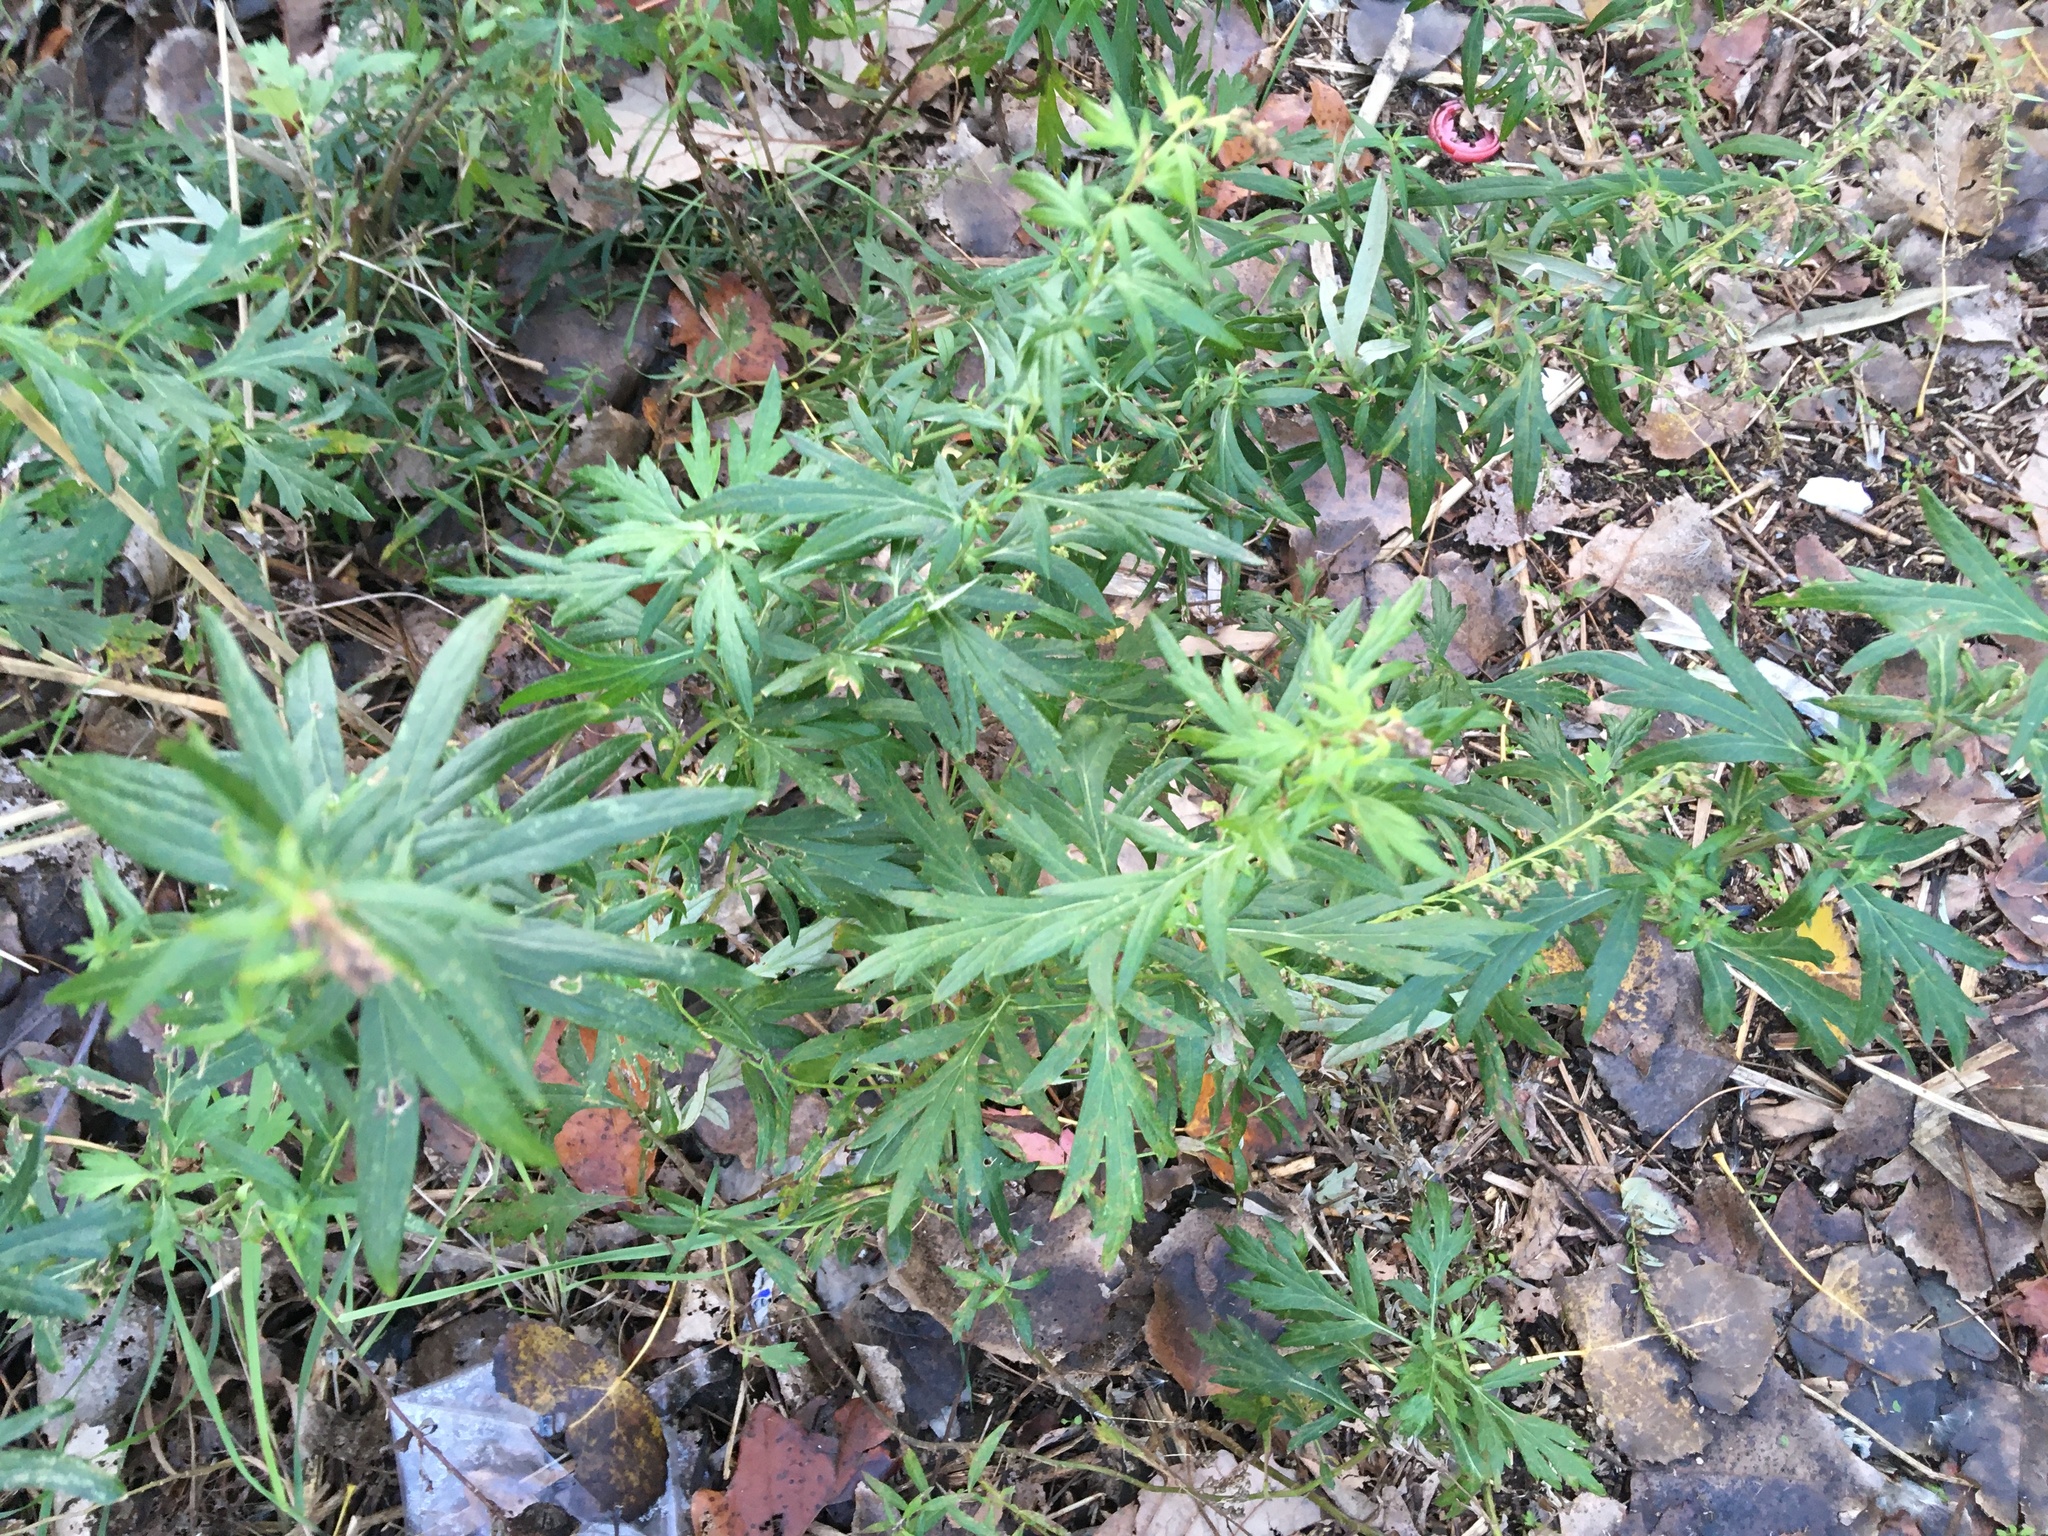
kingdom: Plantae
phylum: Tracheophyta
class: Magnoliopsida
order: Asterales
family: Asteraceae
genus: Artemisia
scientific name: Artemisia vulgaris
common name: Mugwort
